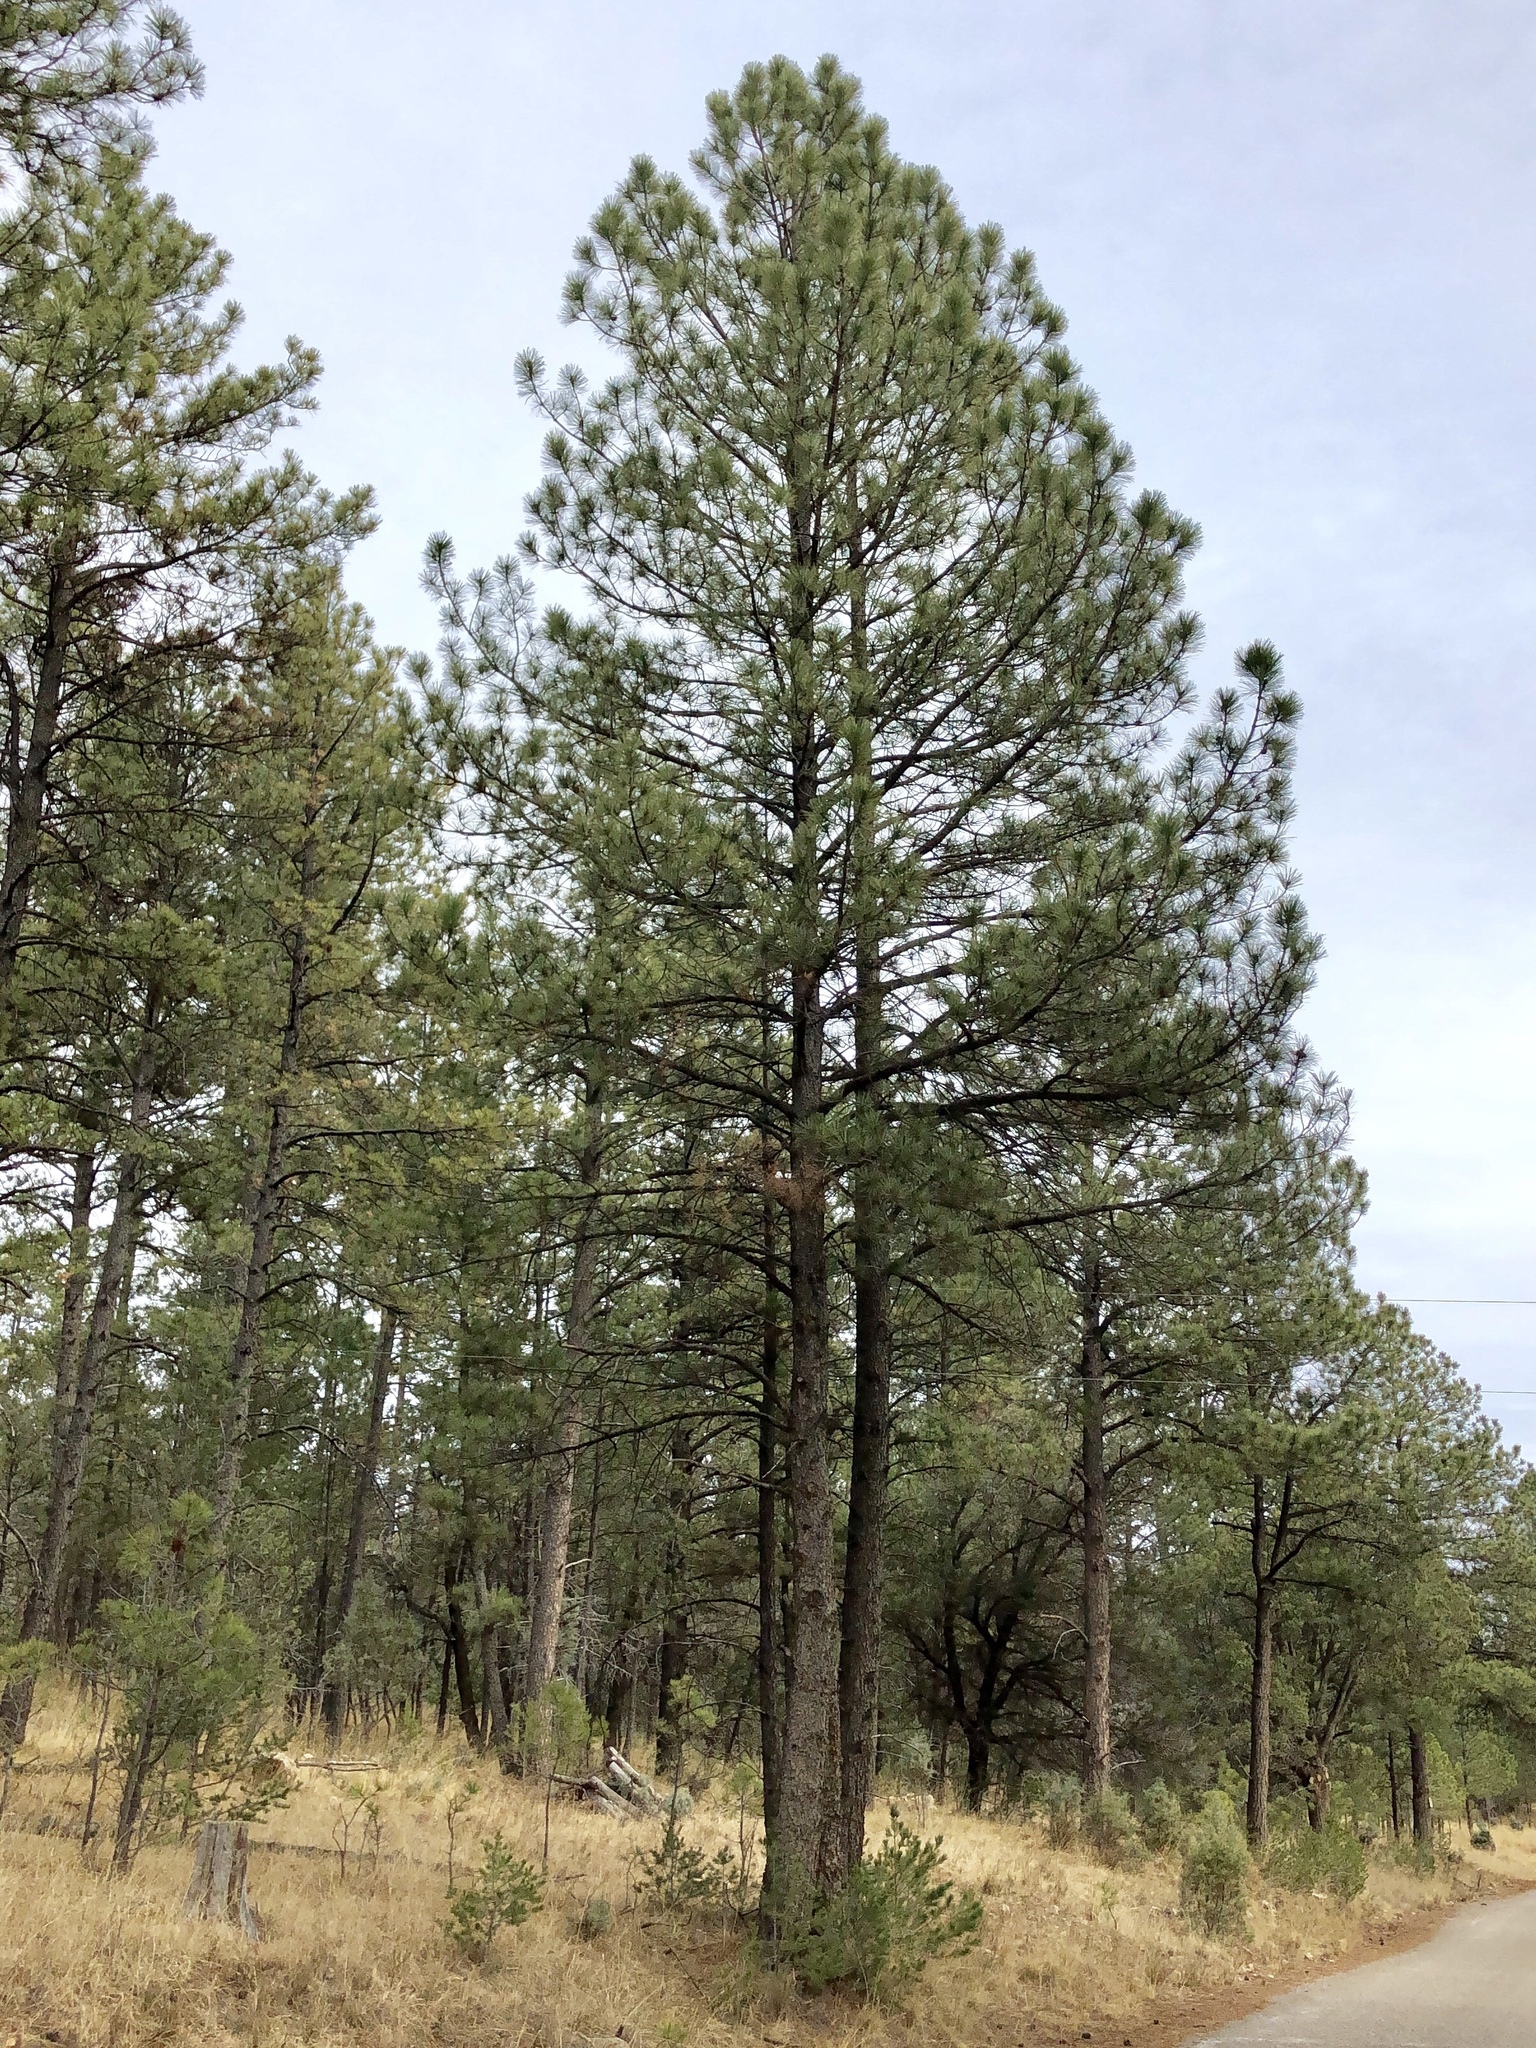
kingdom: Plantae
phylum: Tracheophyta
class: Pinopsida
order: Pinales
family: Pinaceae
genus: Pinus
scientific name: Pinus ponderosa
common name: Western yellow-pine
